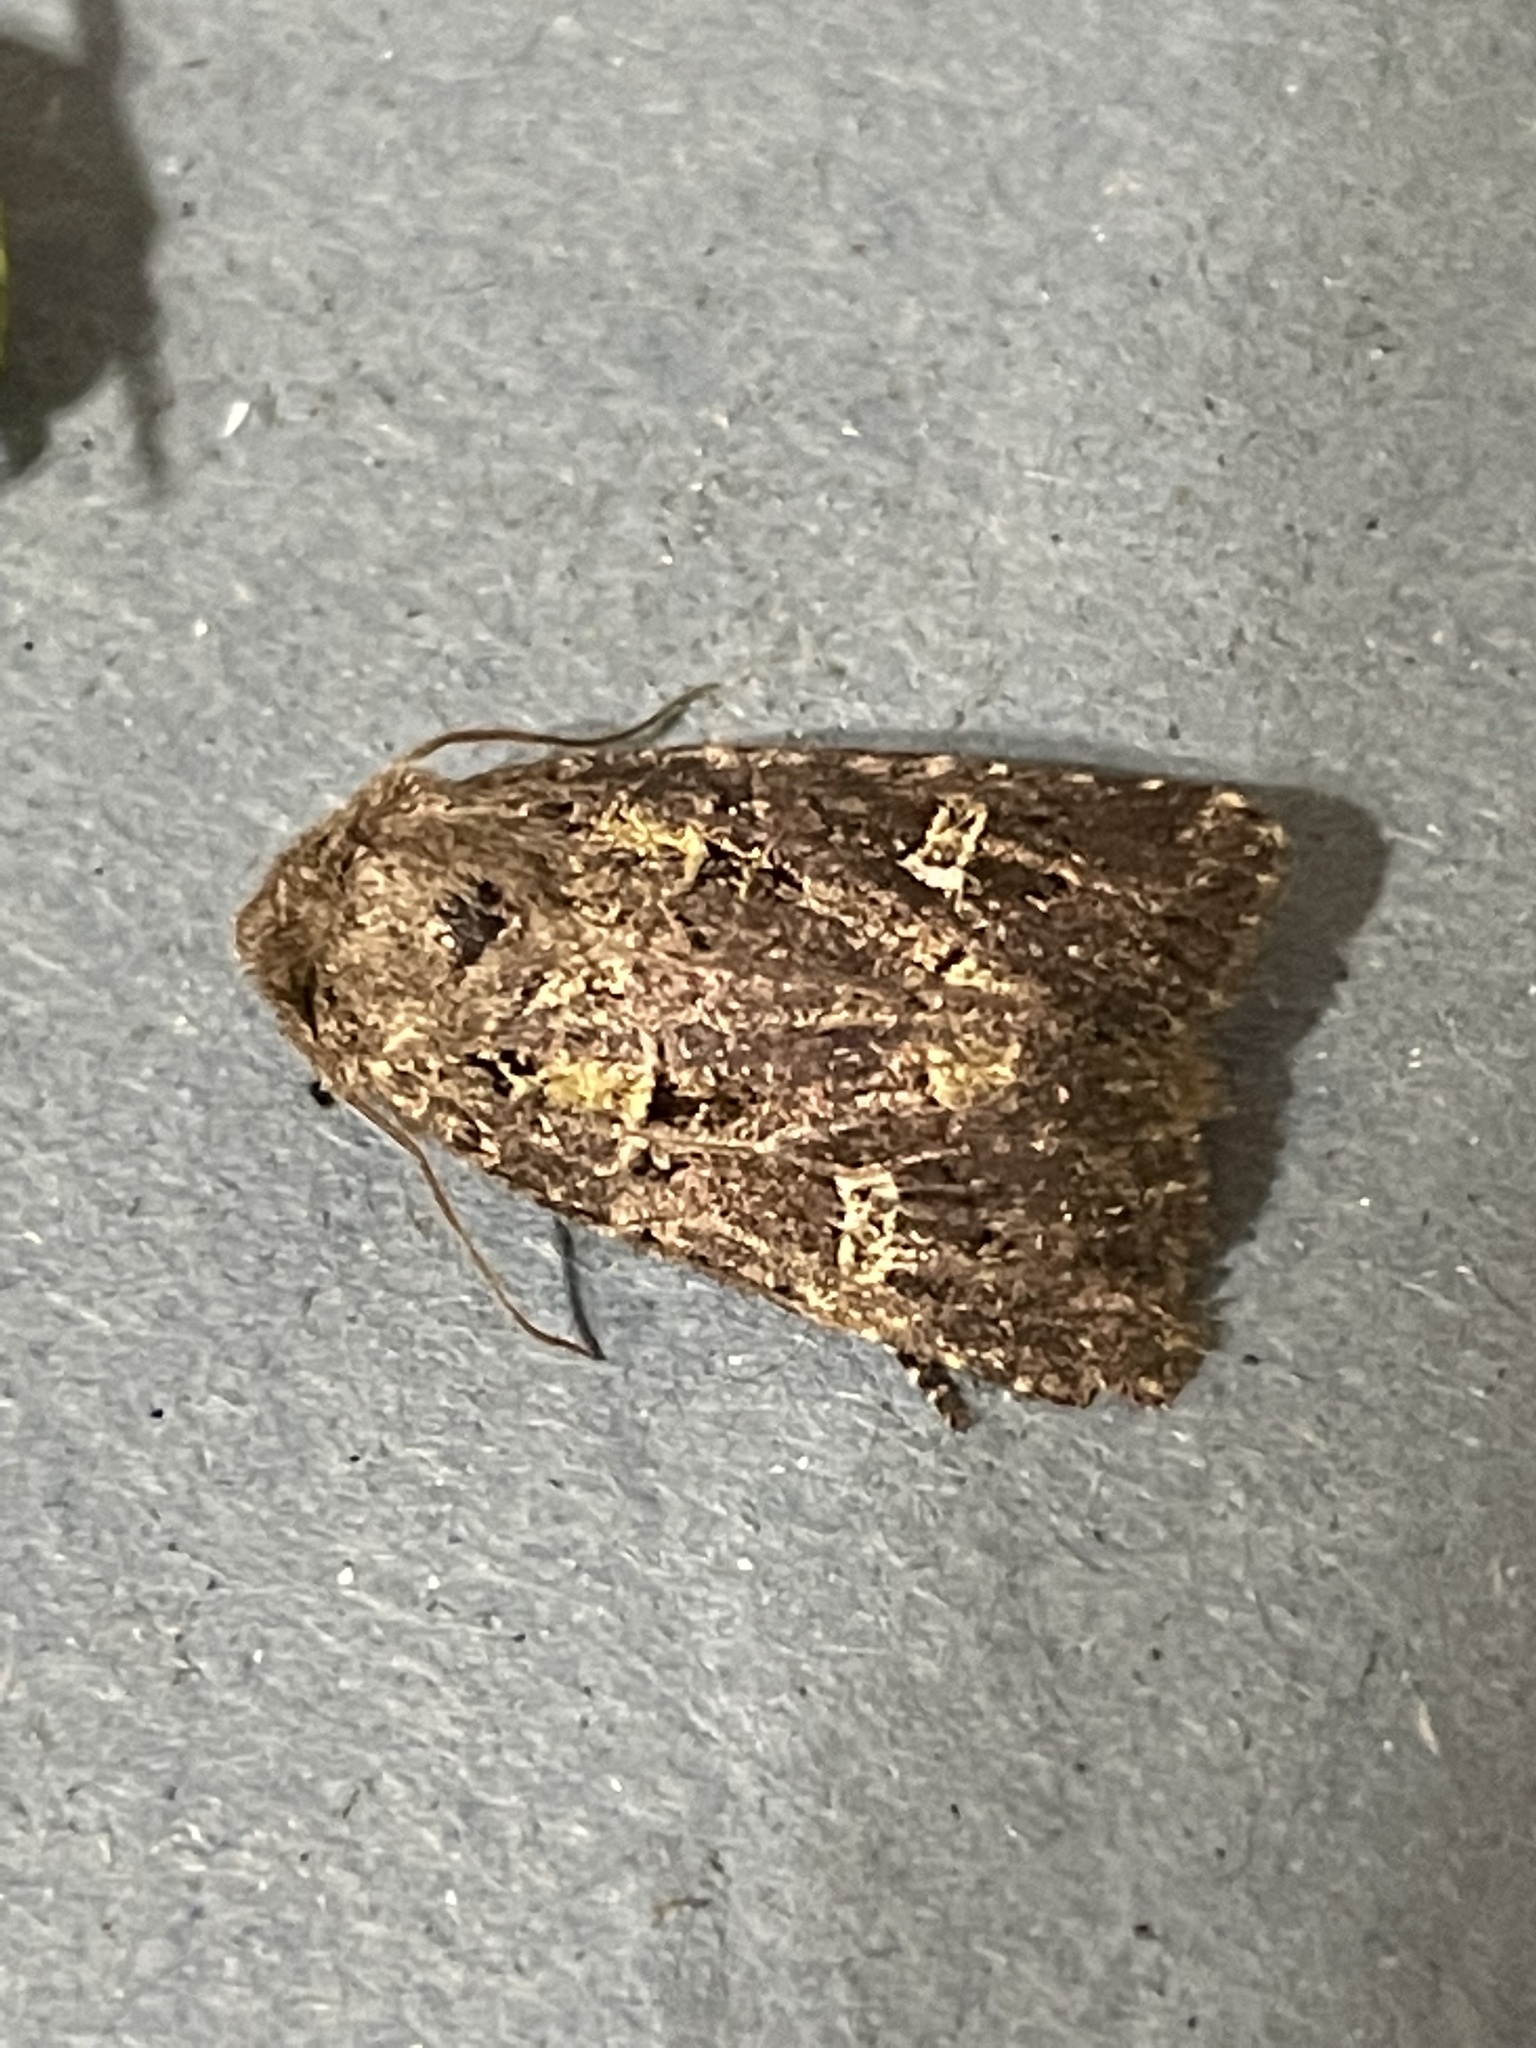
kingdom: Animalia
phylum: Arthropoda
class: Insecta
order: Lepidoptera
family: Noctuidae
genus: Lacinipolia
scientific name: Lacinipolia renigera
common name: Kidney-spotted minor
